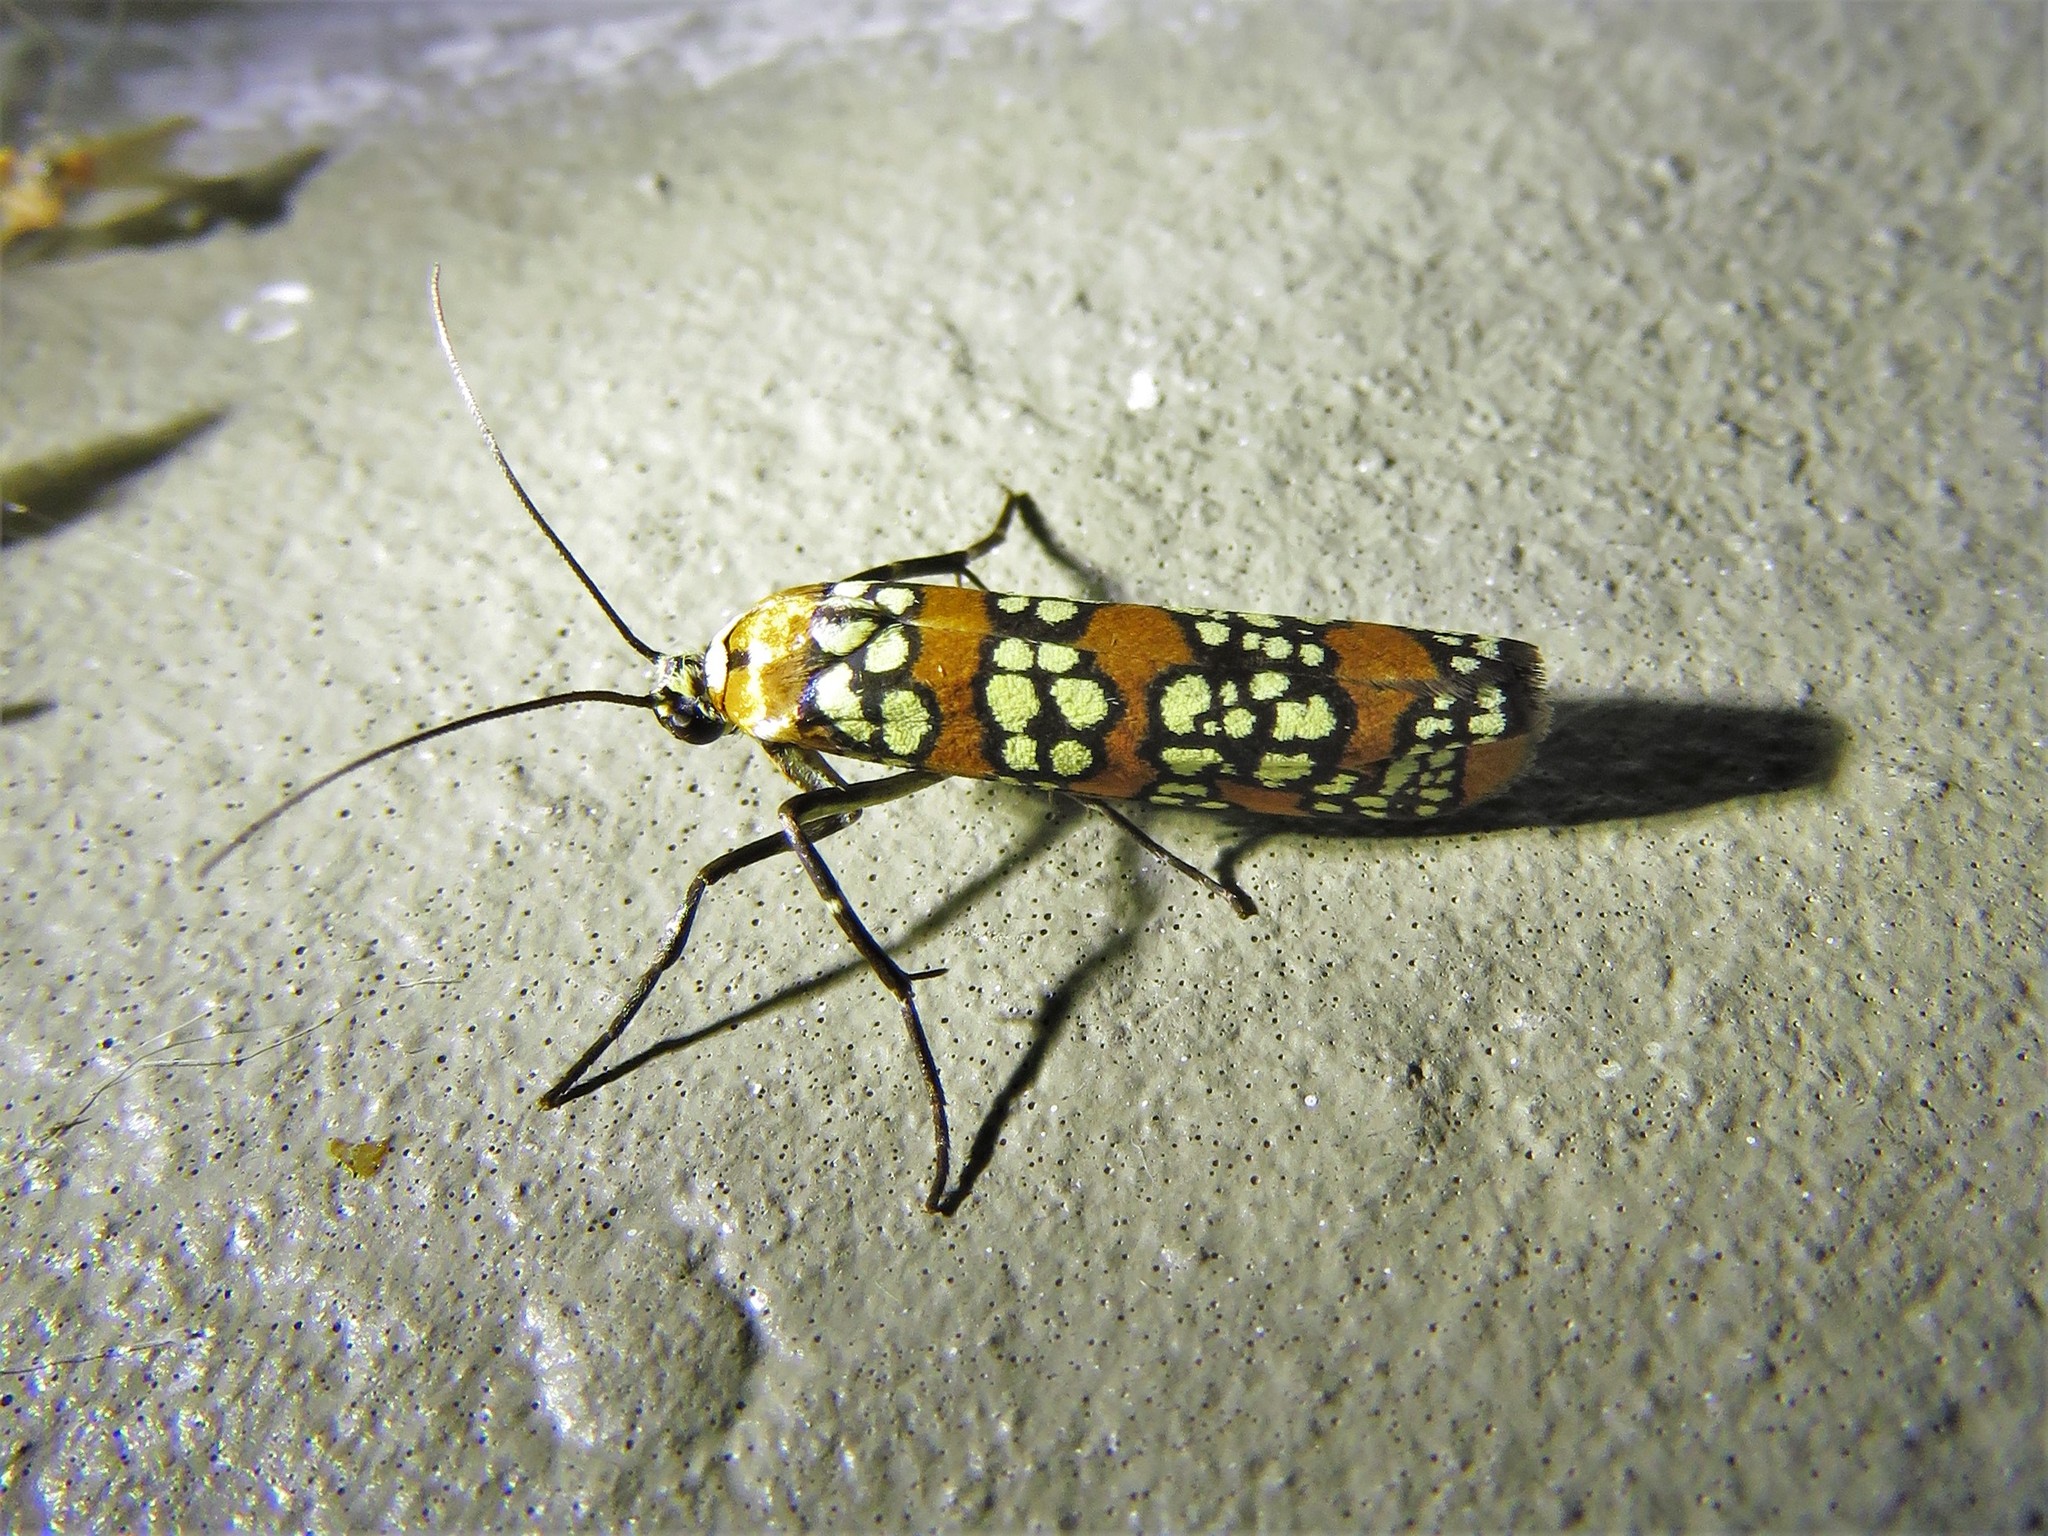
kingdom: Animalia
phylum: Arthropoda
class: Insecta
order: Lepidoptera
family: Attevidae
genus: Atteva
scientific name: Atteva punctella
